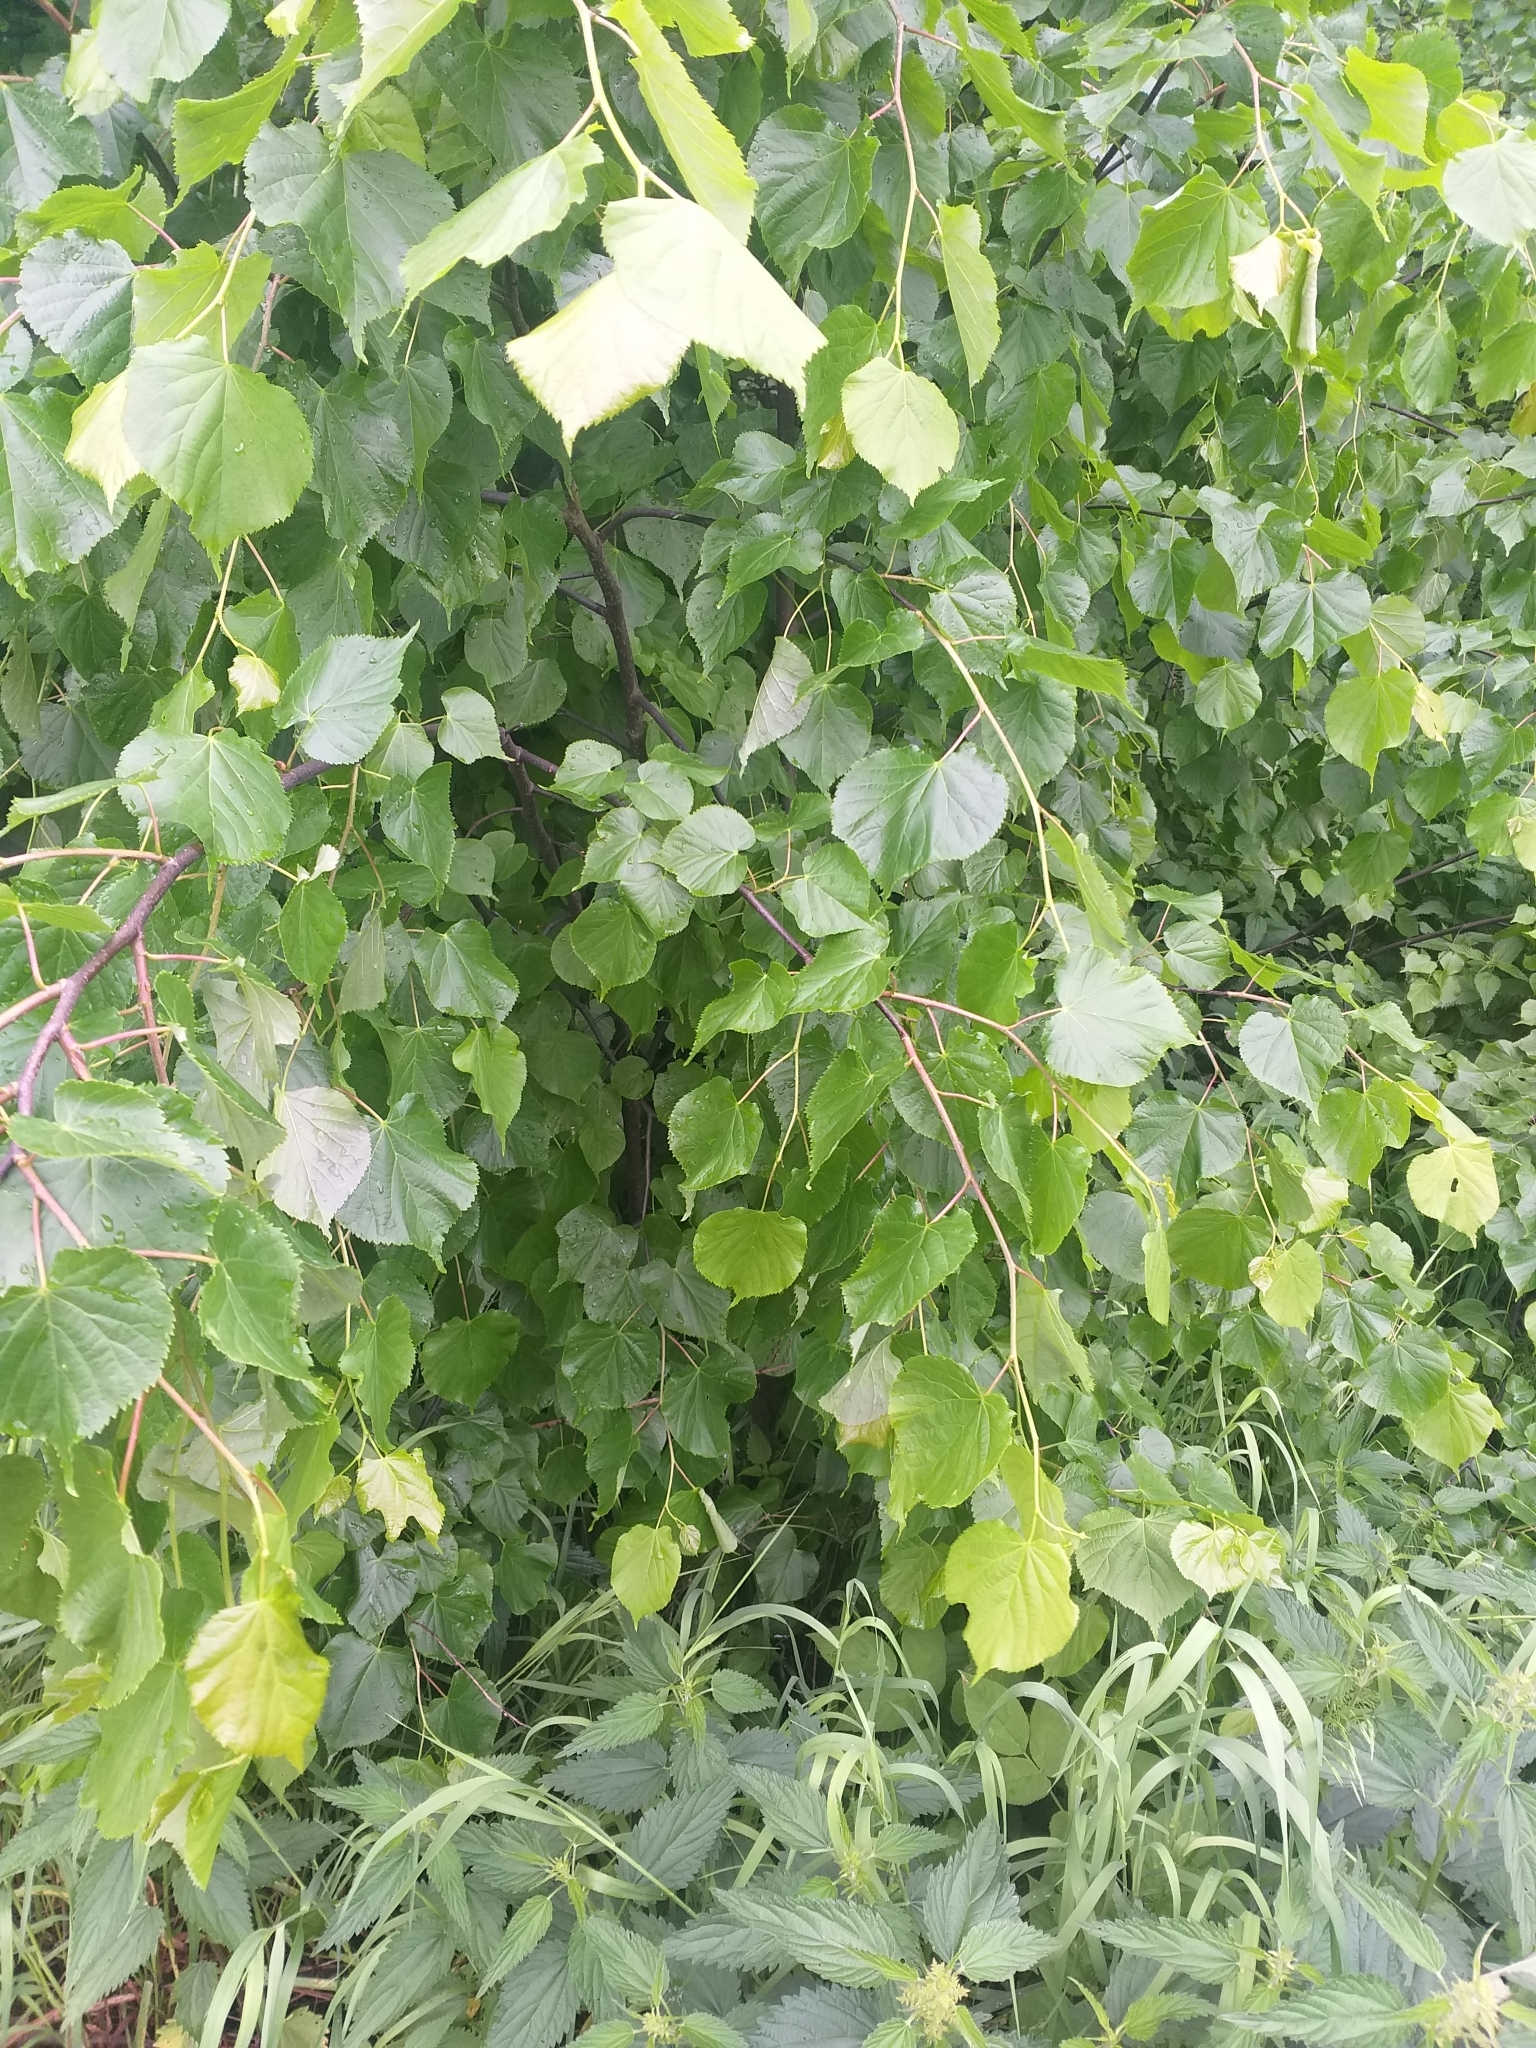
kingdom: Plantae
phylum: Tracheophyta
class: Magnoliopsida
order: Malvales
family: Malvaceae
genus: Tilia
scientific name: Tilia cordata
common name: Small-leaved lime
